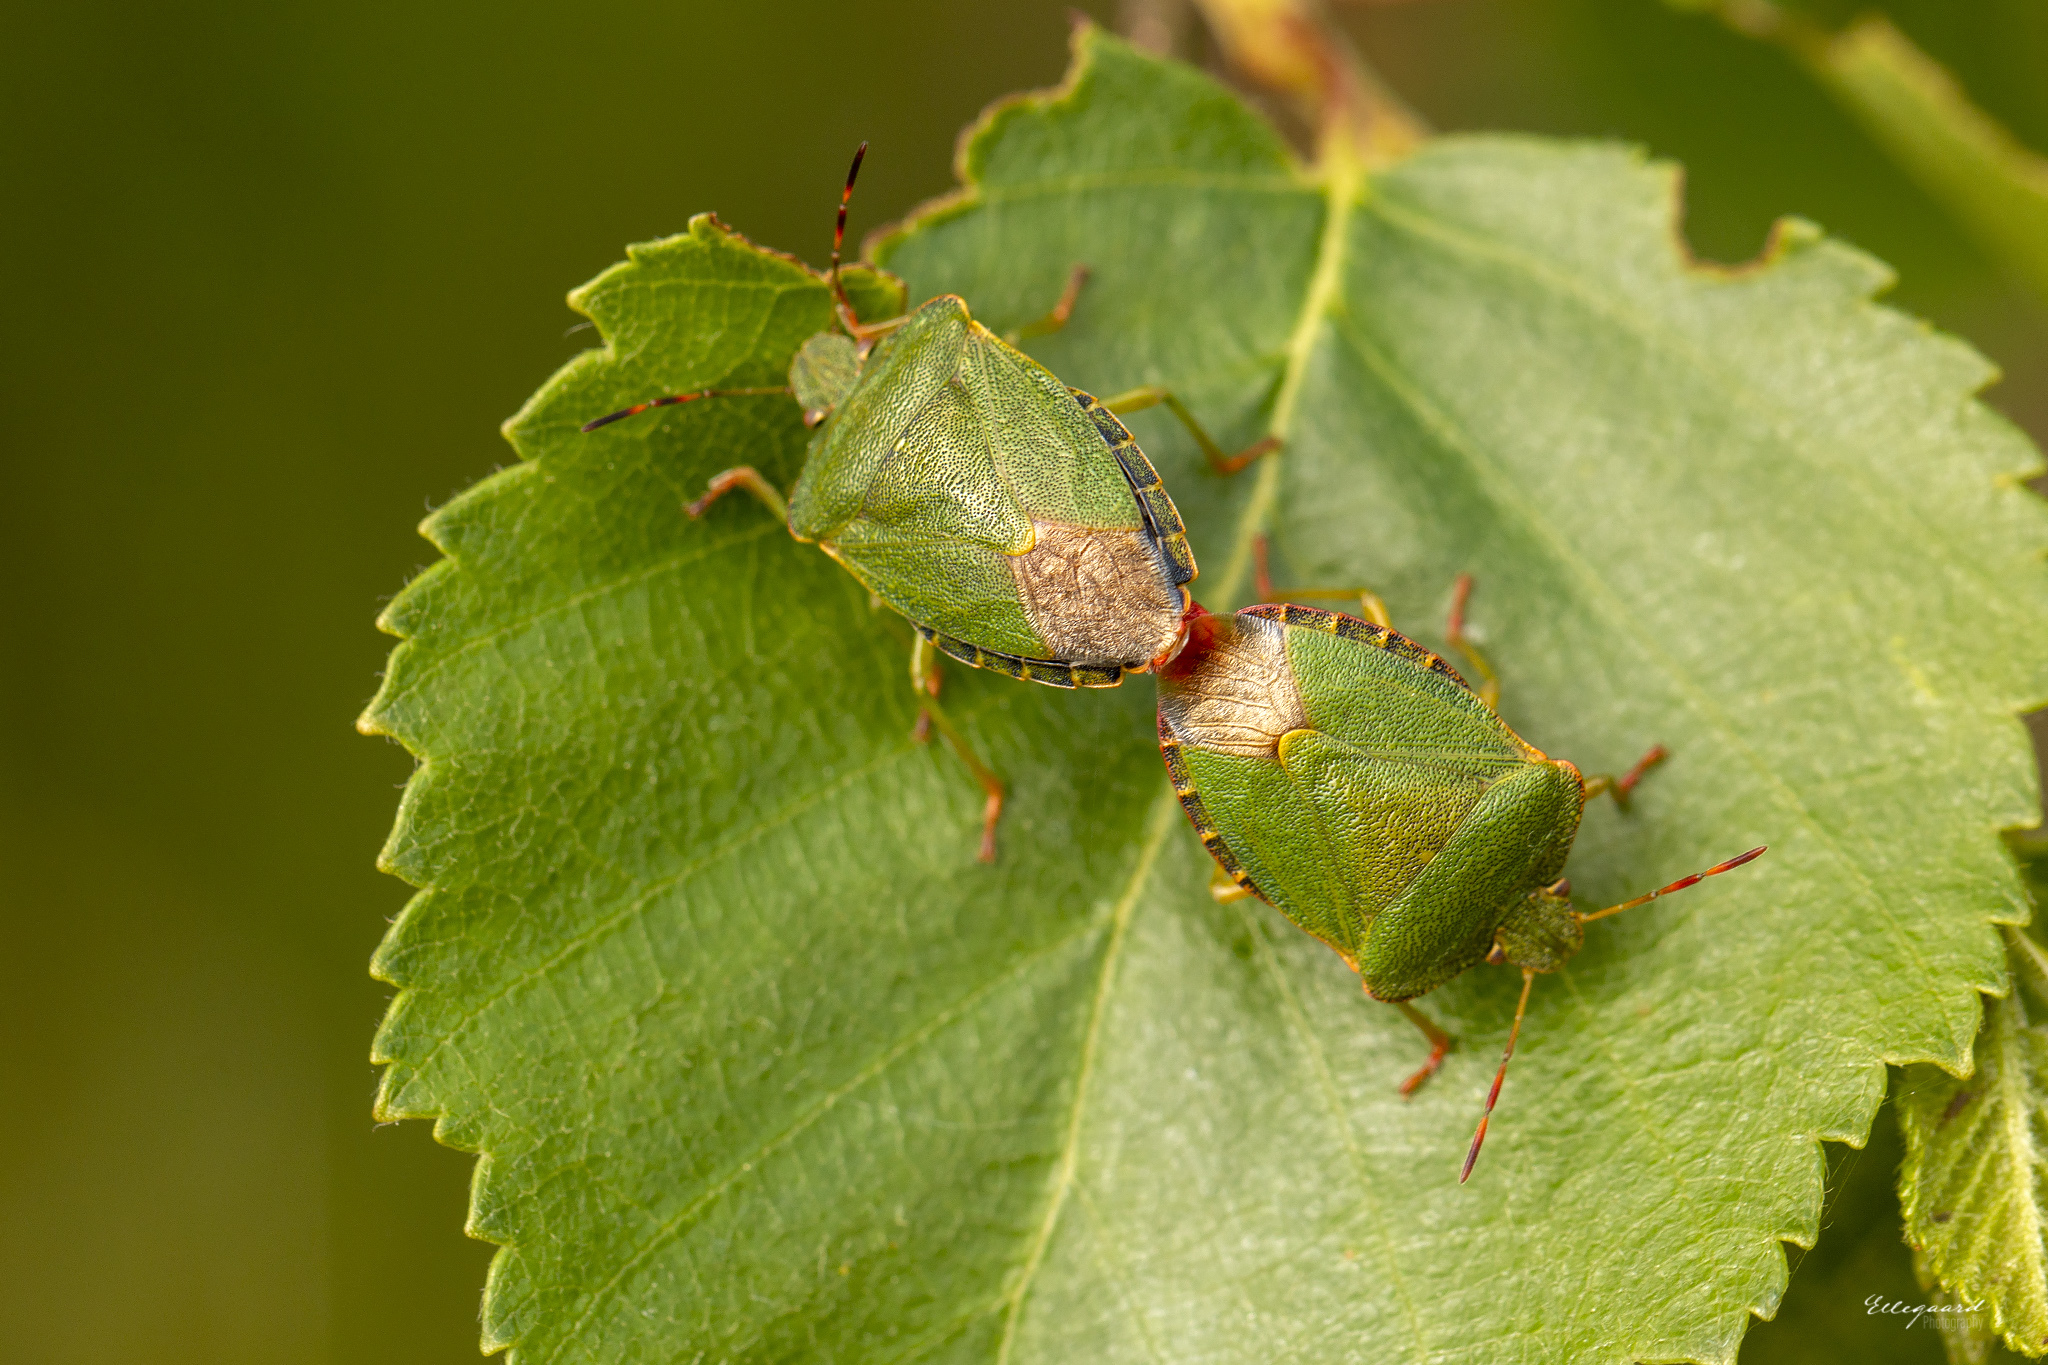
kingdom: Animalia
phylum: Arthropoda
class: Insecta
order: Hemiptera
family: Pentatomidae
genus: Palomena
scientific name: Palomena prasina
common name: Green shieldbug
